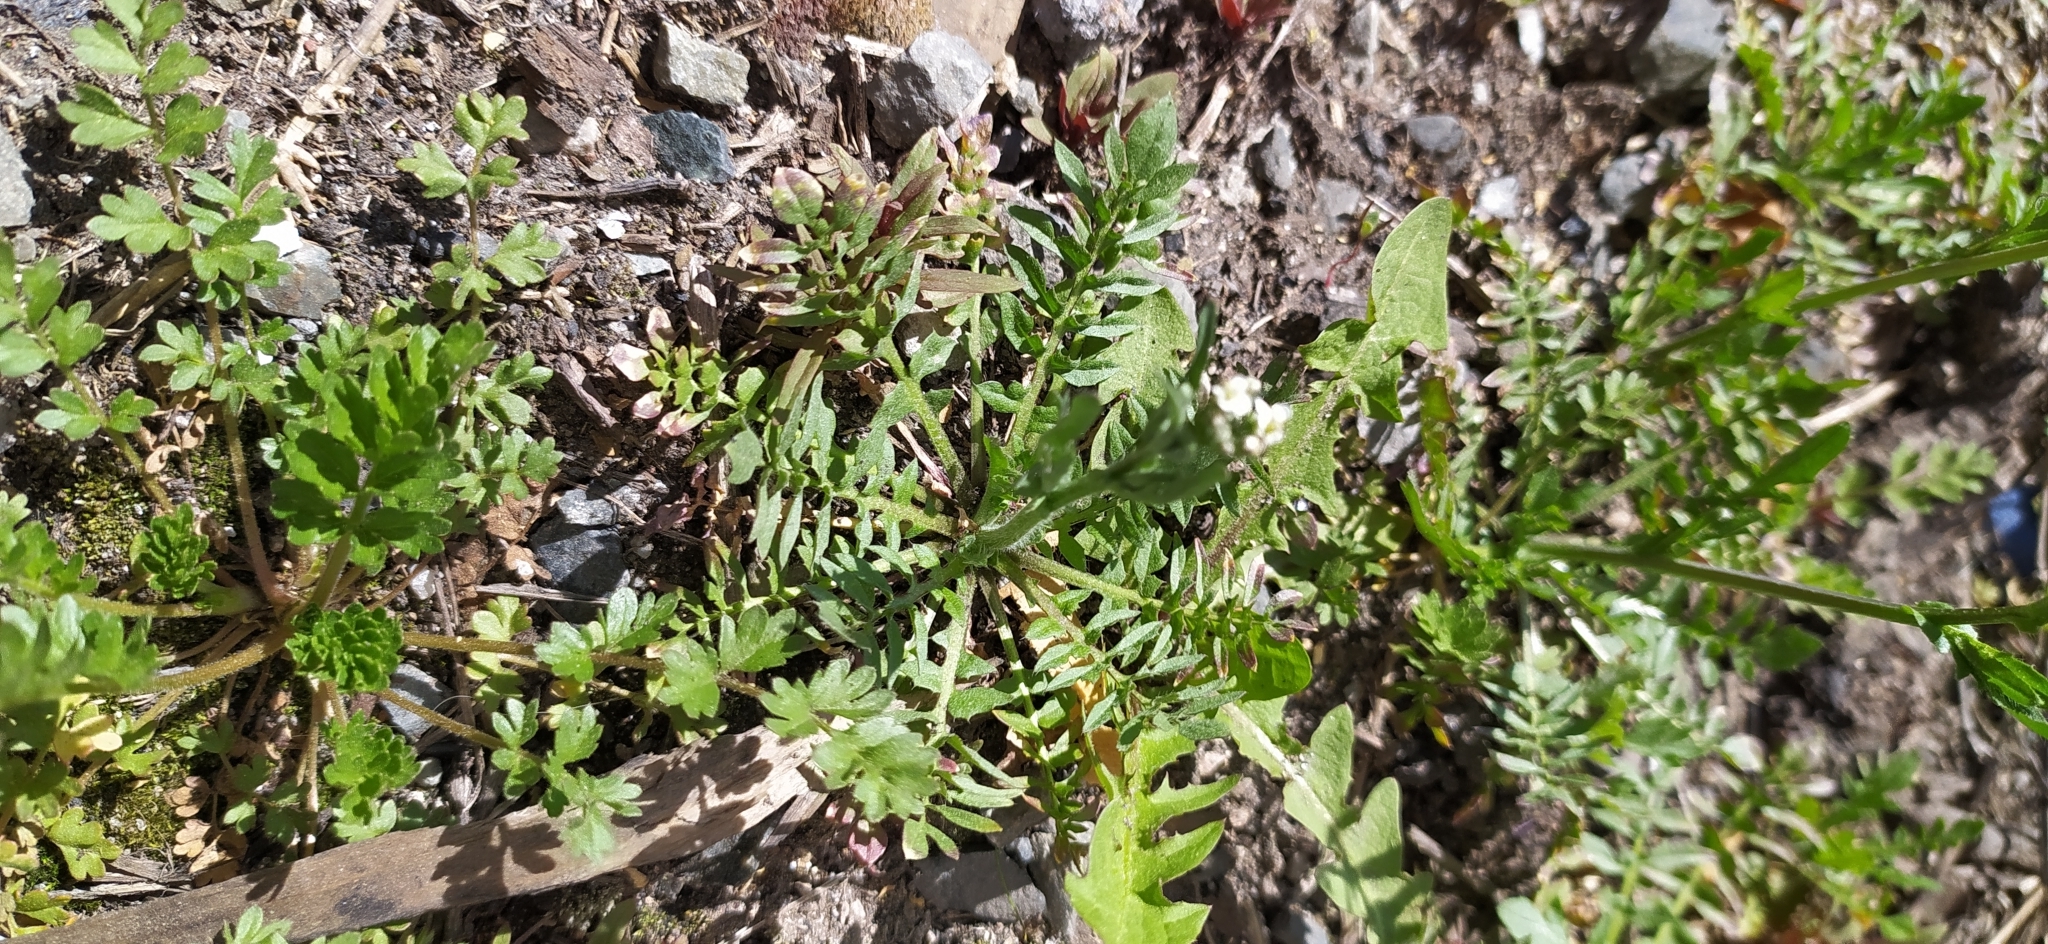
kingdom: Plantae
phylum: Tracheophyta
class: Magnoliopsida
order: Brassicales
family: Brassicaceae
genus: Capsella
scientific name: Capsella bursa-pastoris
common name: Shepherd's purse
